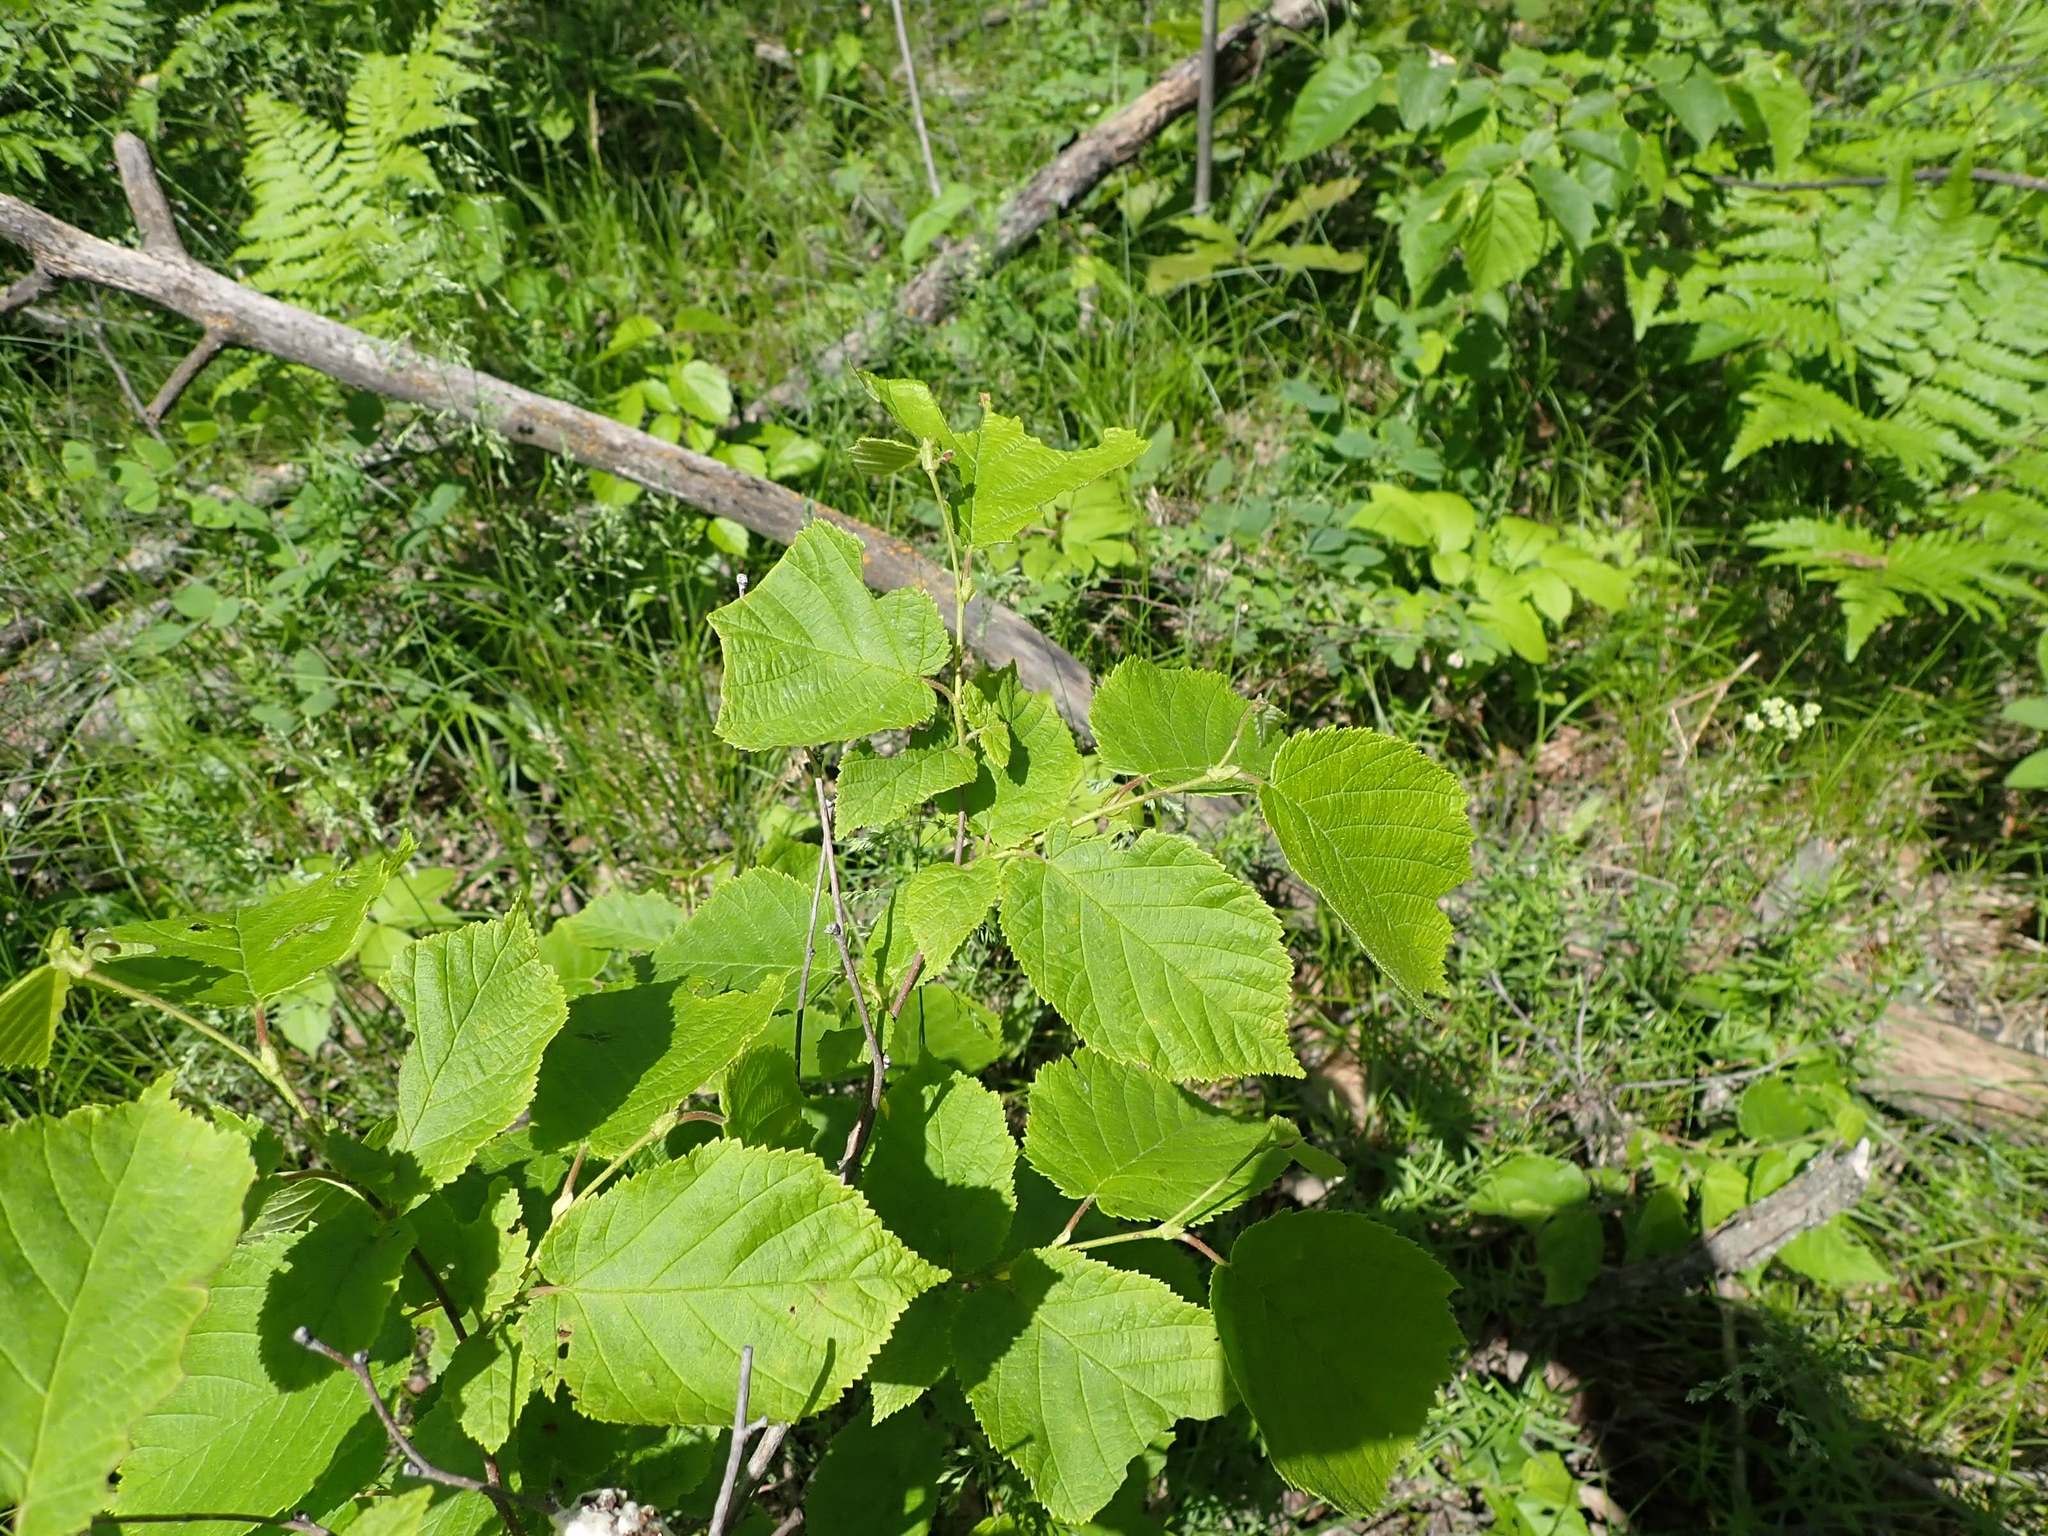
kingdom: Plantae
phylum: Tracheophyta
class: Magnoliopsida
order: Fagales
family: Betulaceae
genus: Corylus
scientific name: Corylus americana
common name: American hazel
